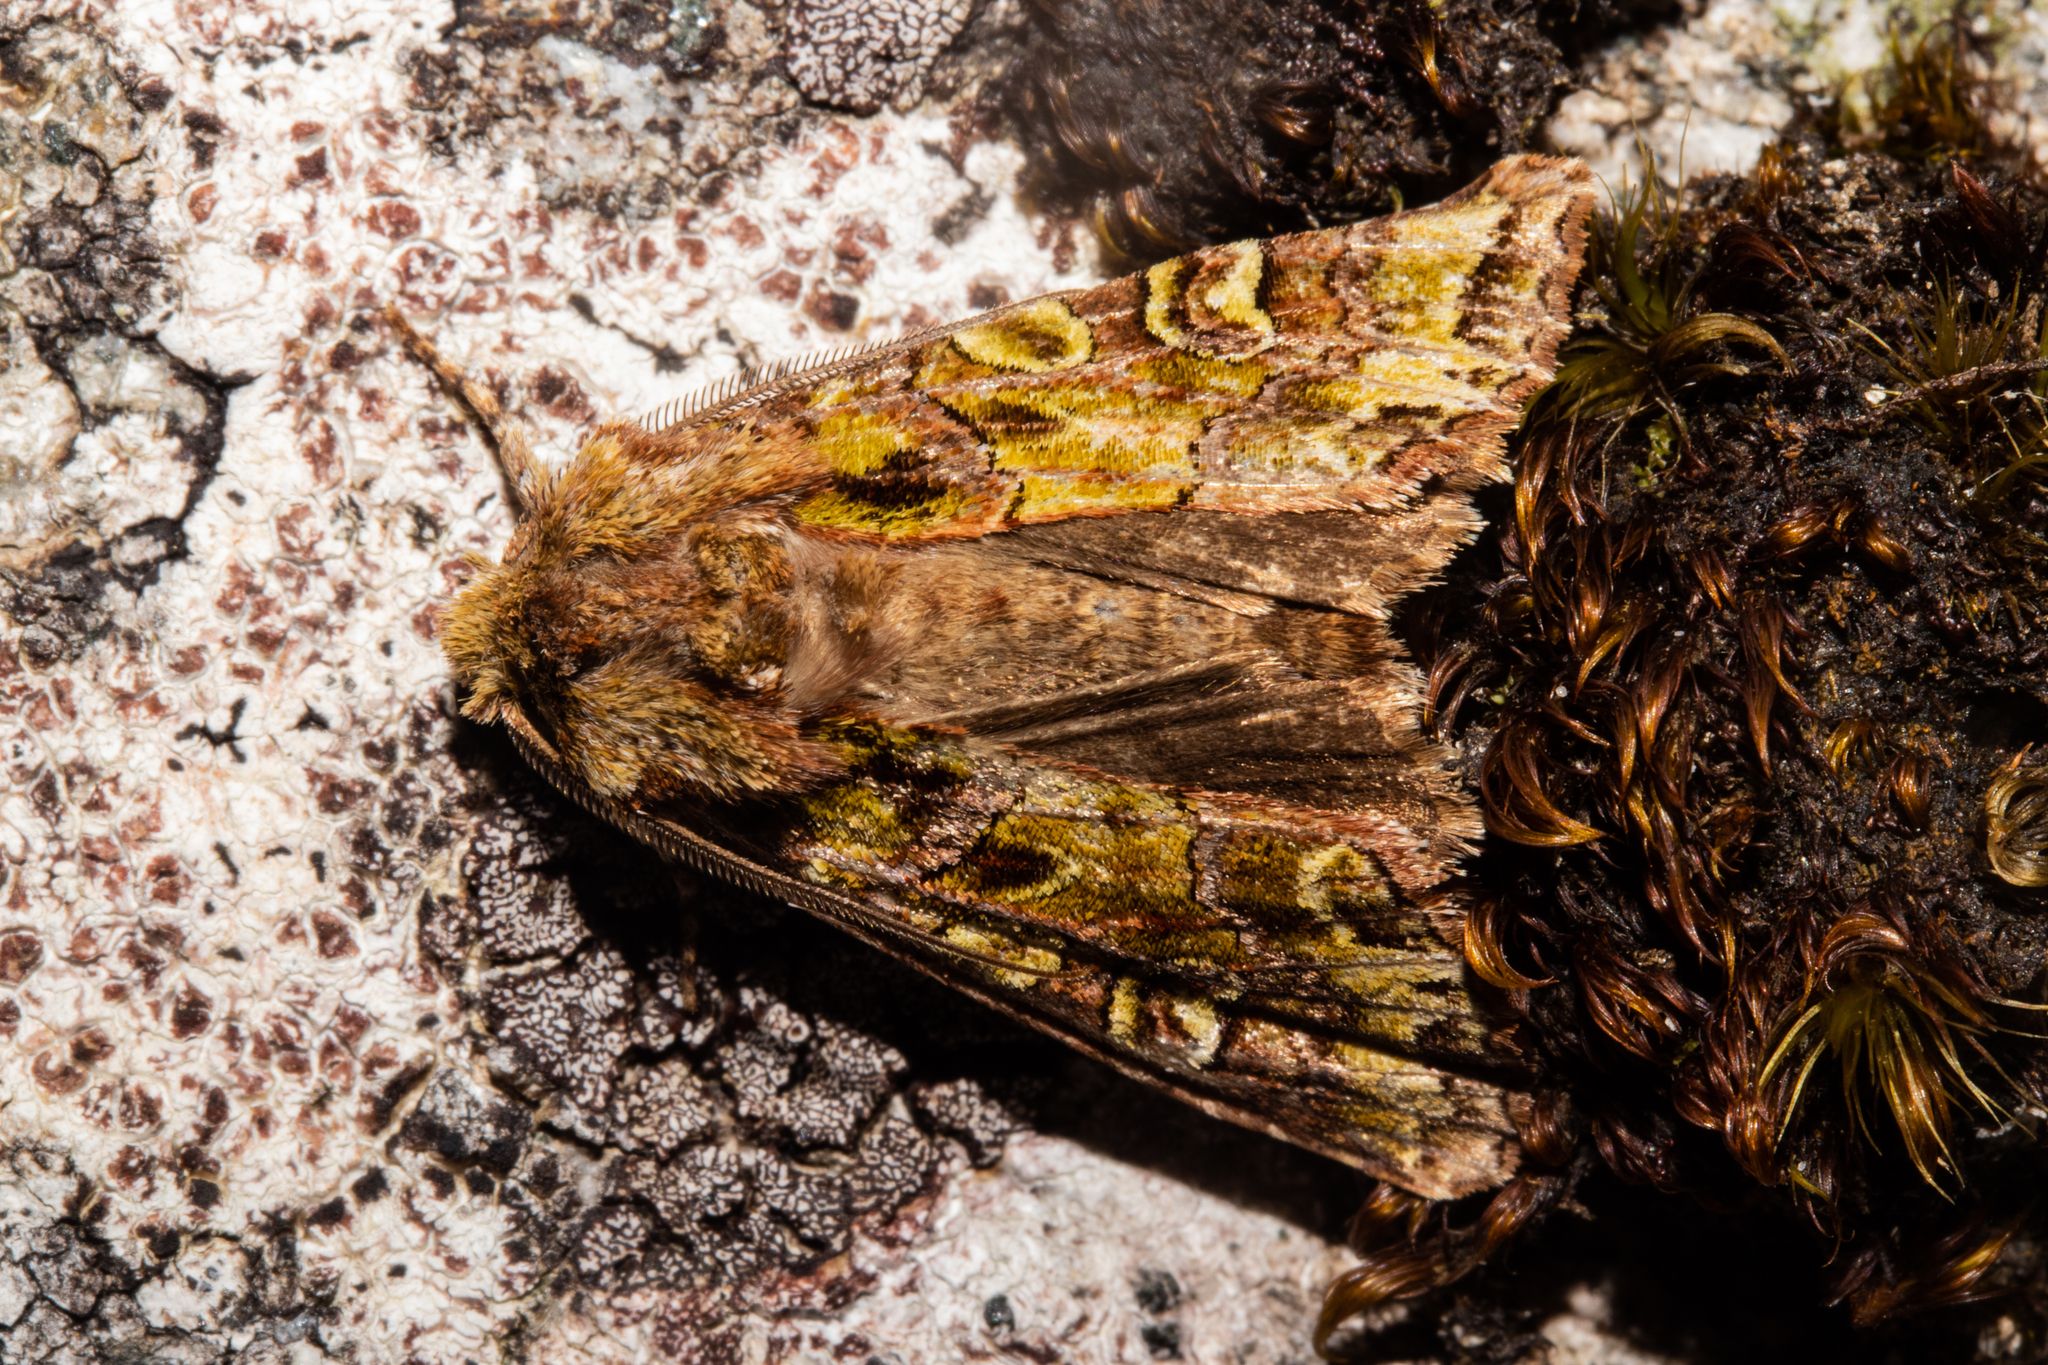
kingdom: Animalia
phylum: Arthropoda
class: Insecta
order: Lepidoptera
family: Noctuidae
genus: Ichneutica
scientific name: Ichneutica chlorodonta
